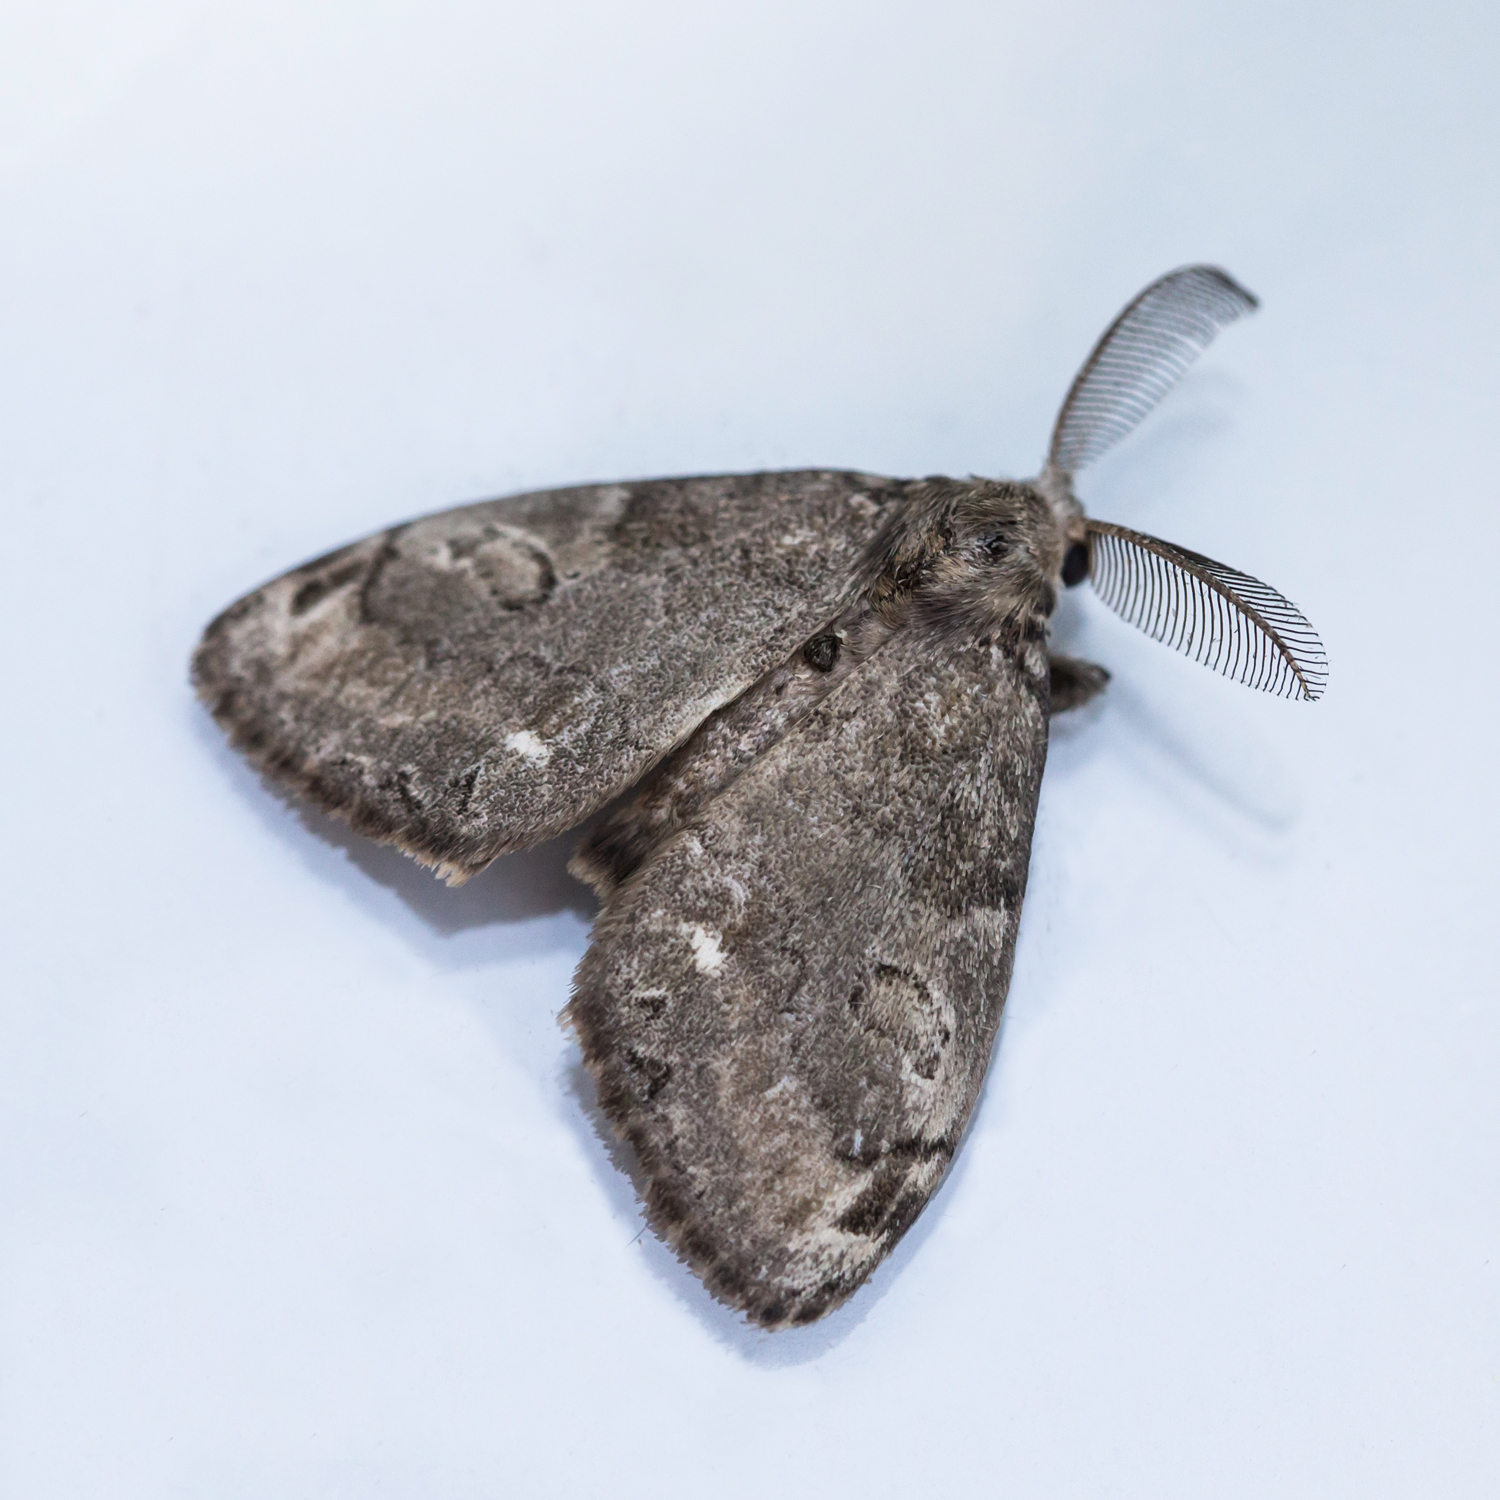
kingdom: Animalia
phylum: Arthropoda
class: Insecta
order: Lepidoptera
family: Erebidae
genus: Orgyia
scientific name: Orgyia leucostigma
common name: White-marked tussock moth
